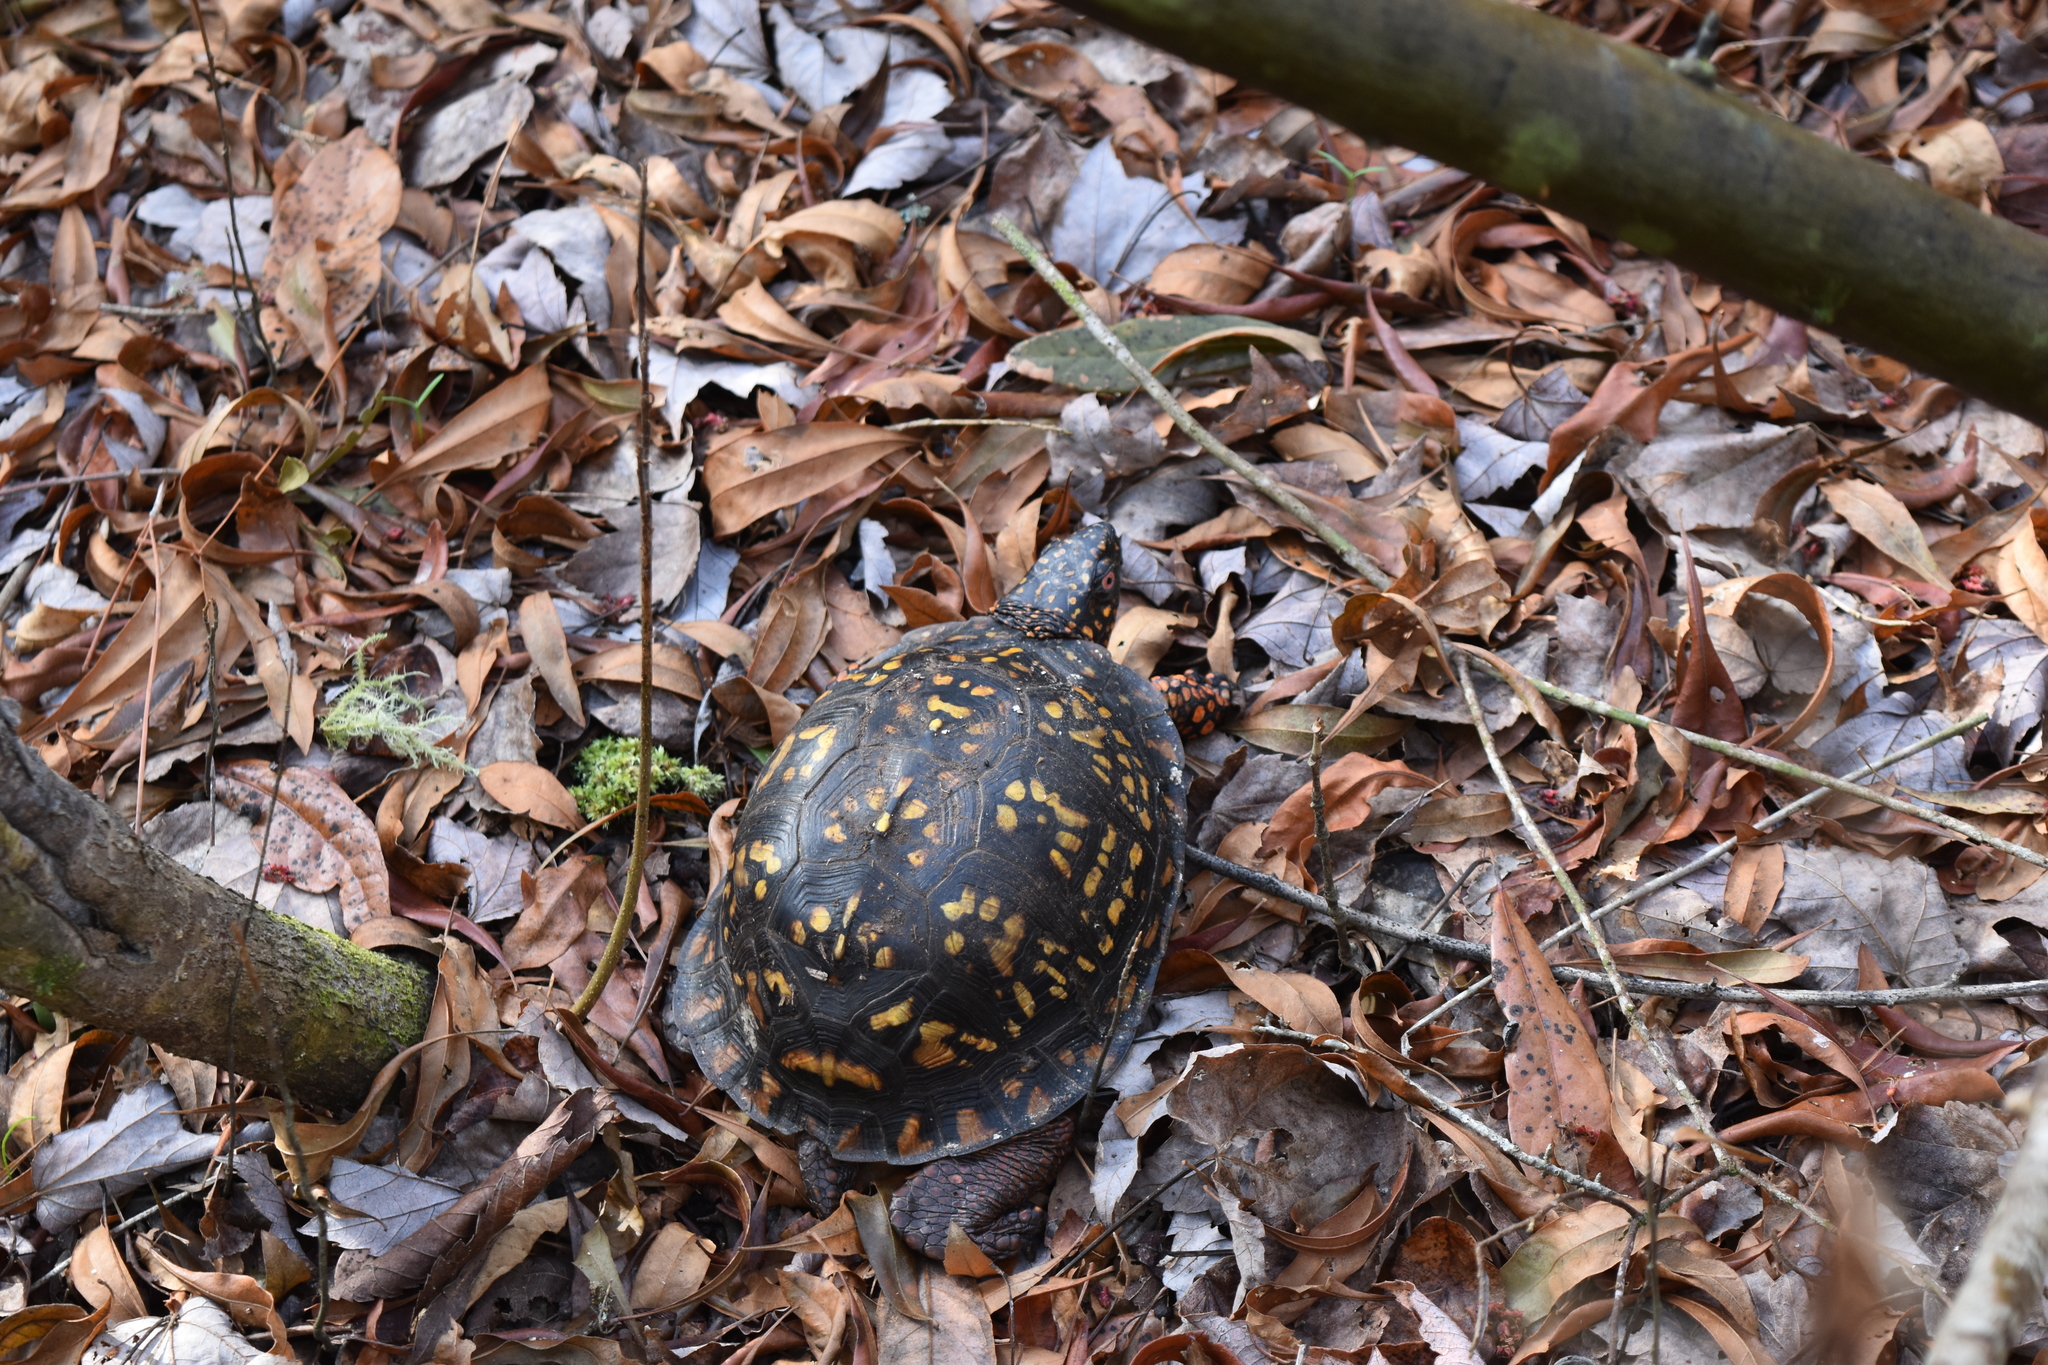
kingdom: Animalia
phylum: Chordata
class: Testudines
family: Emydidae
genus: Terrapene
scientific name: Terrapene carolina
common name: Common box turtle
